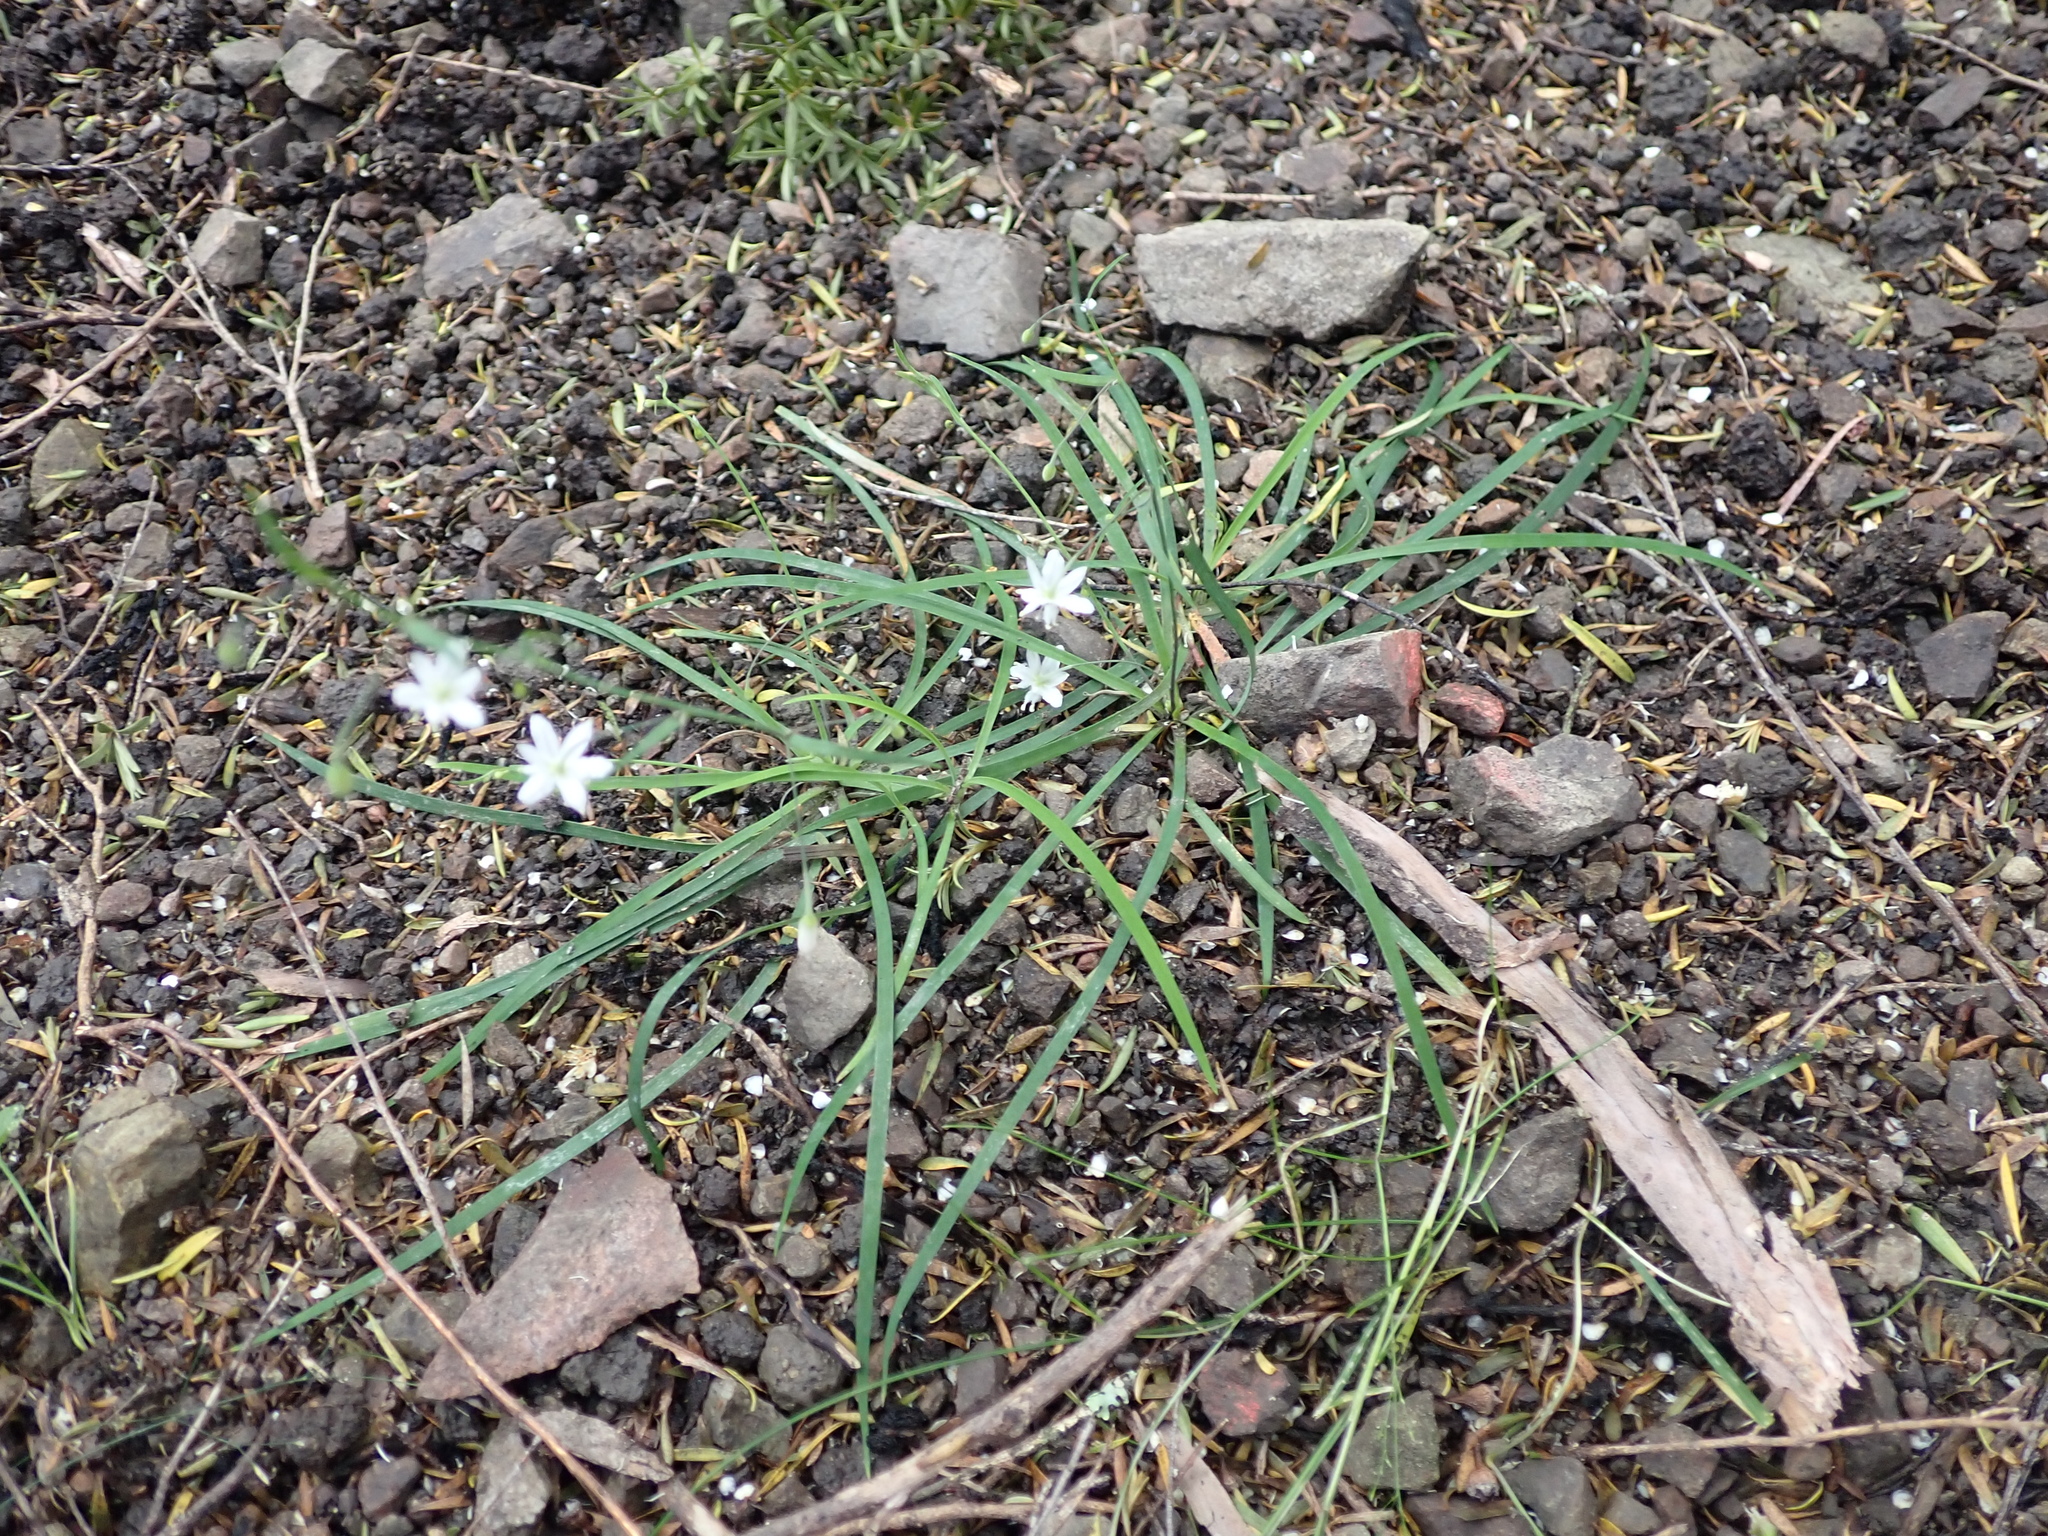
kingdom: Plantae
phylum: Tracheophyta
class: Liliopsida
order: Asparagales
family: Asparagaceae
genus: Arthropodium
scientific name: Arthropodium candidum
